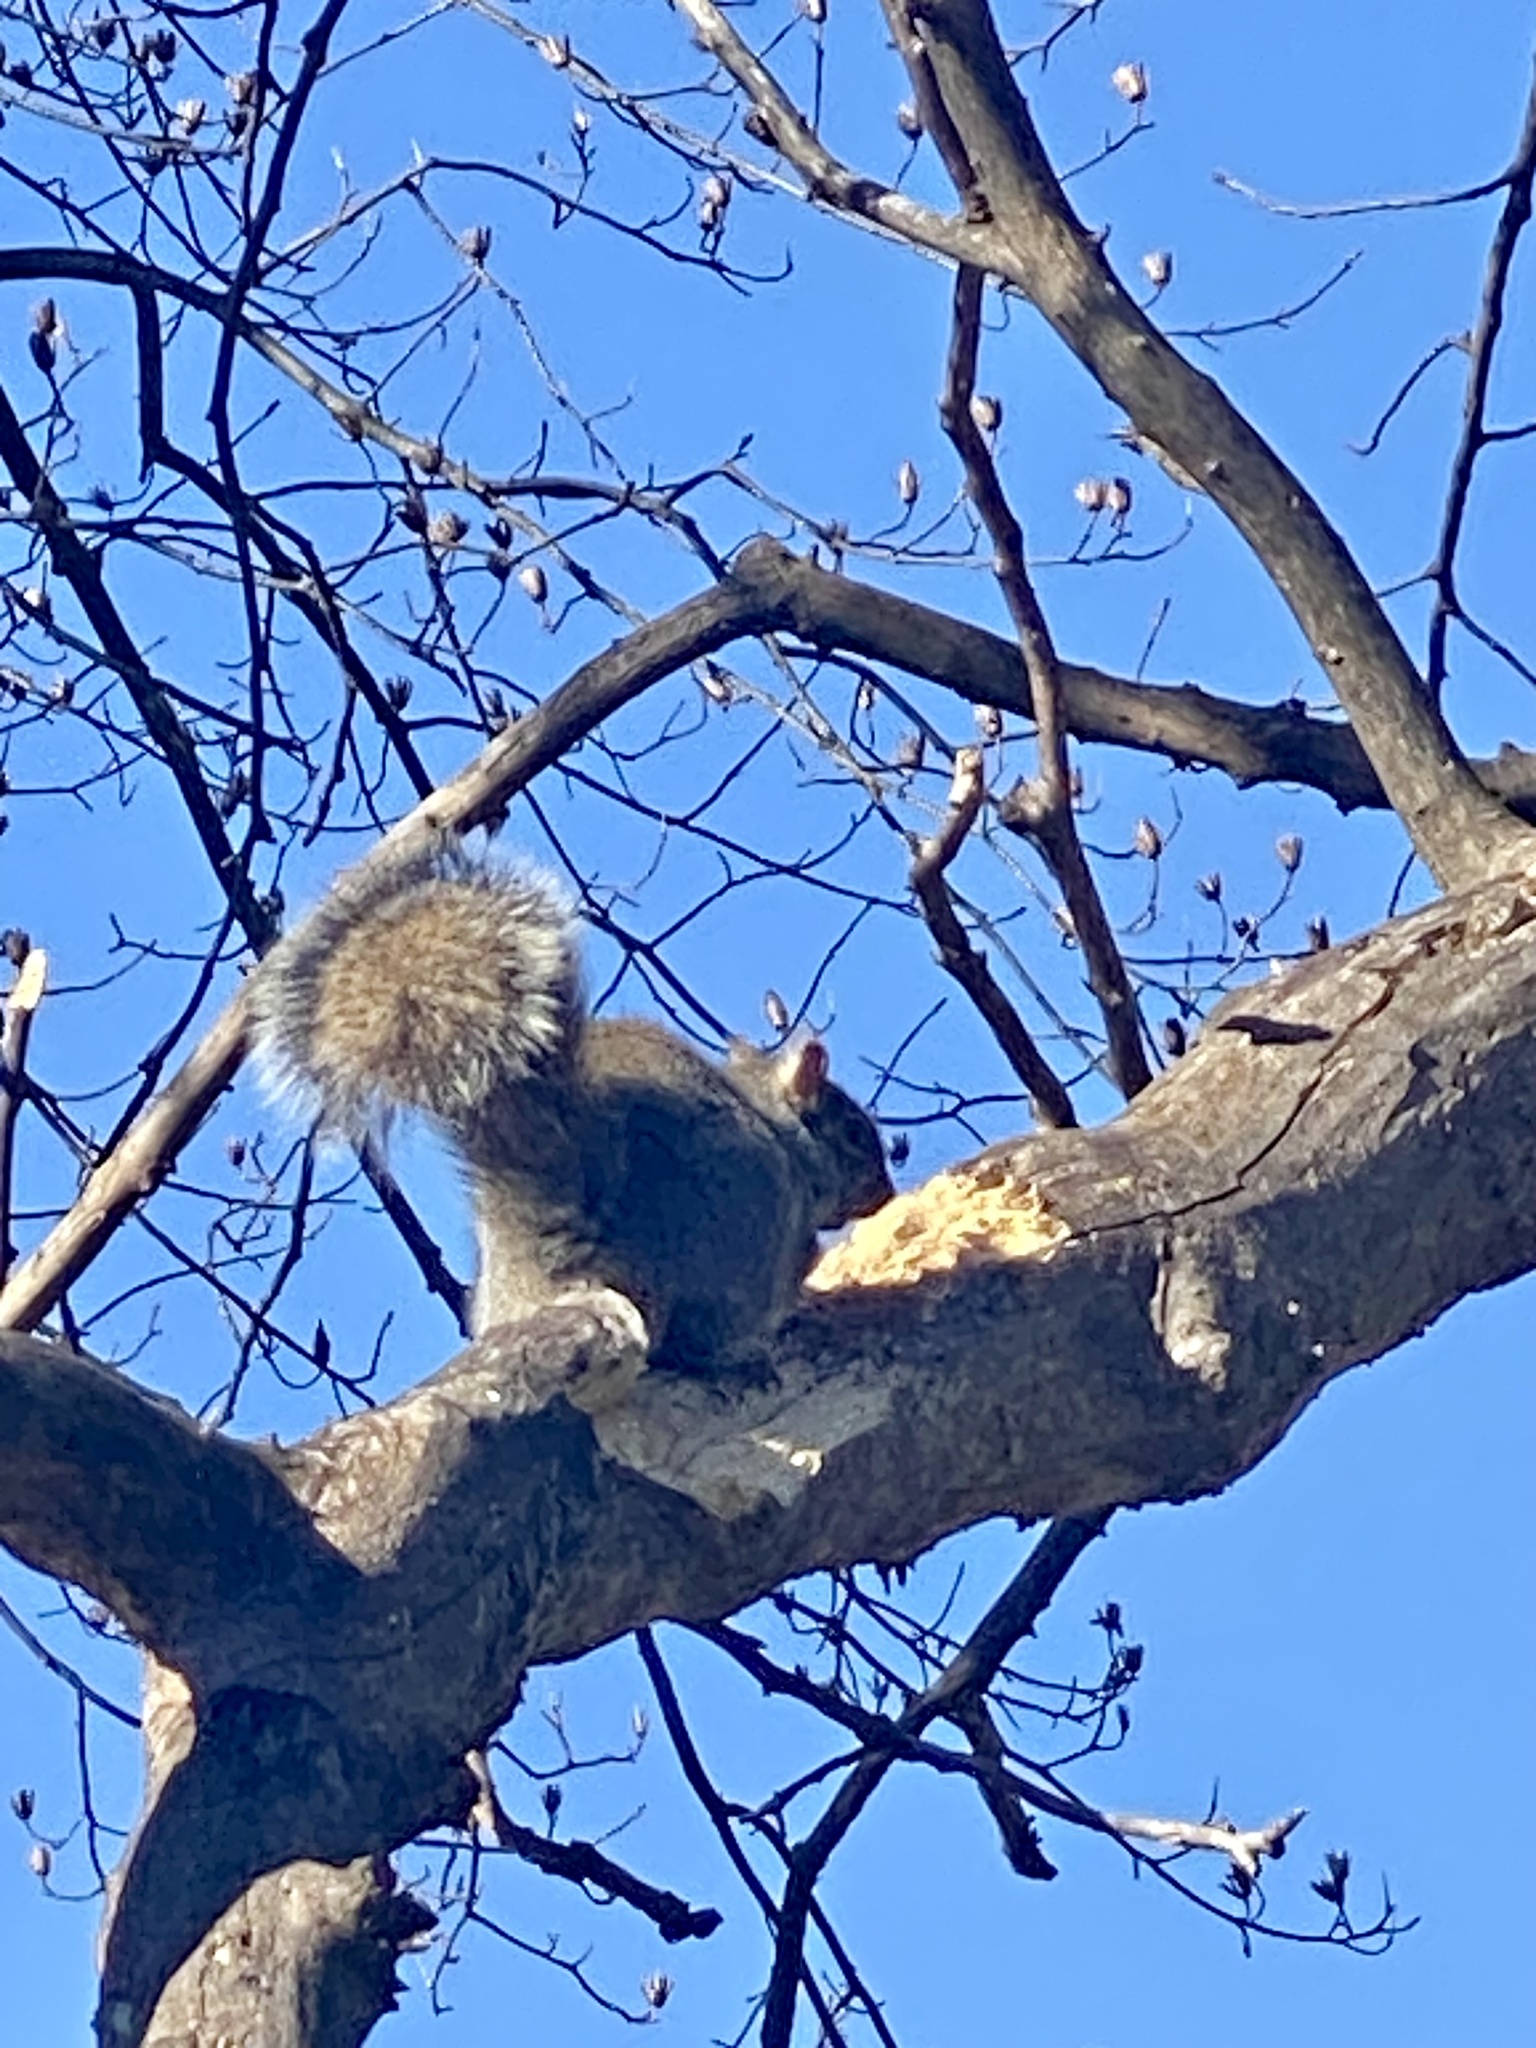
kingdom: Animalia
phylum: Chordata
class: Mammalia
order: Rodentia
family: Sciuridae
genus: Sciurus
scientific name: Sciurus carolinensis
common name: Eastern gray squirrel
